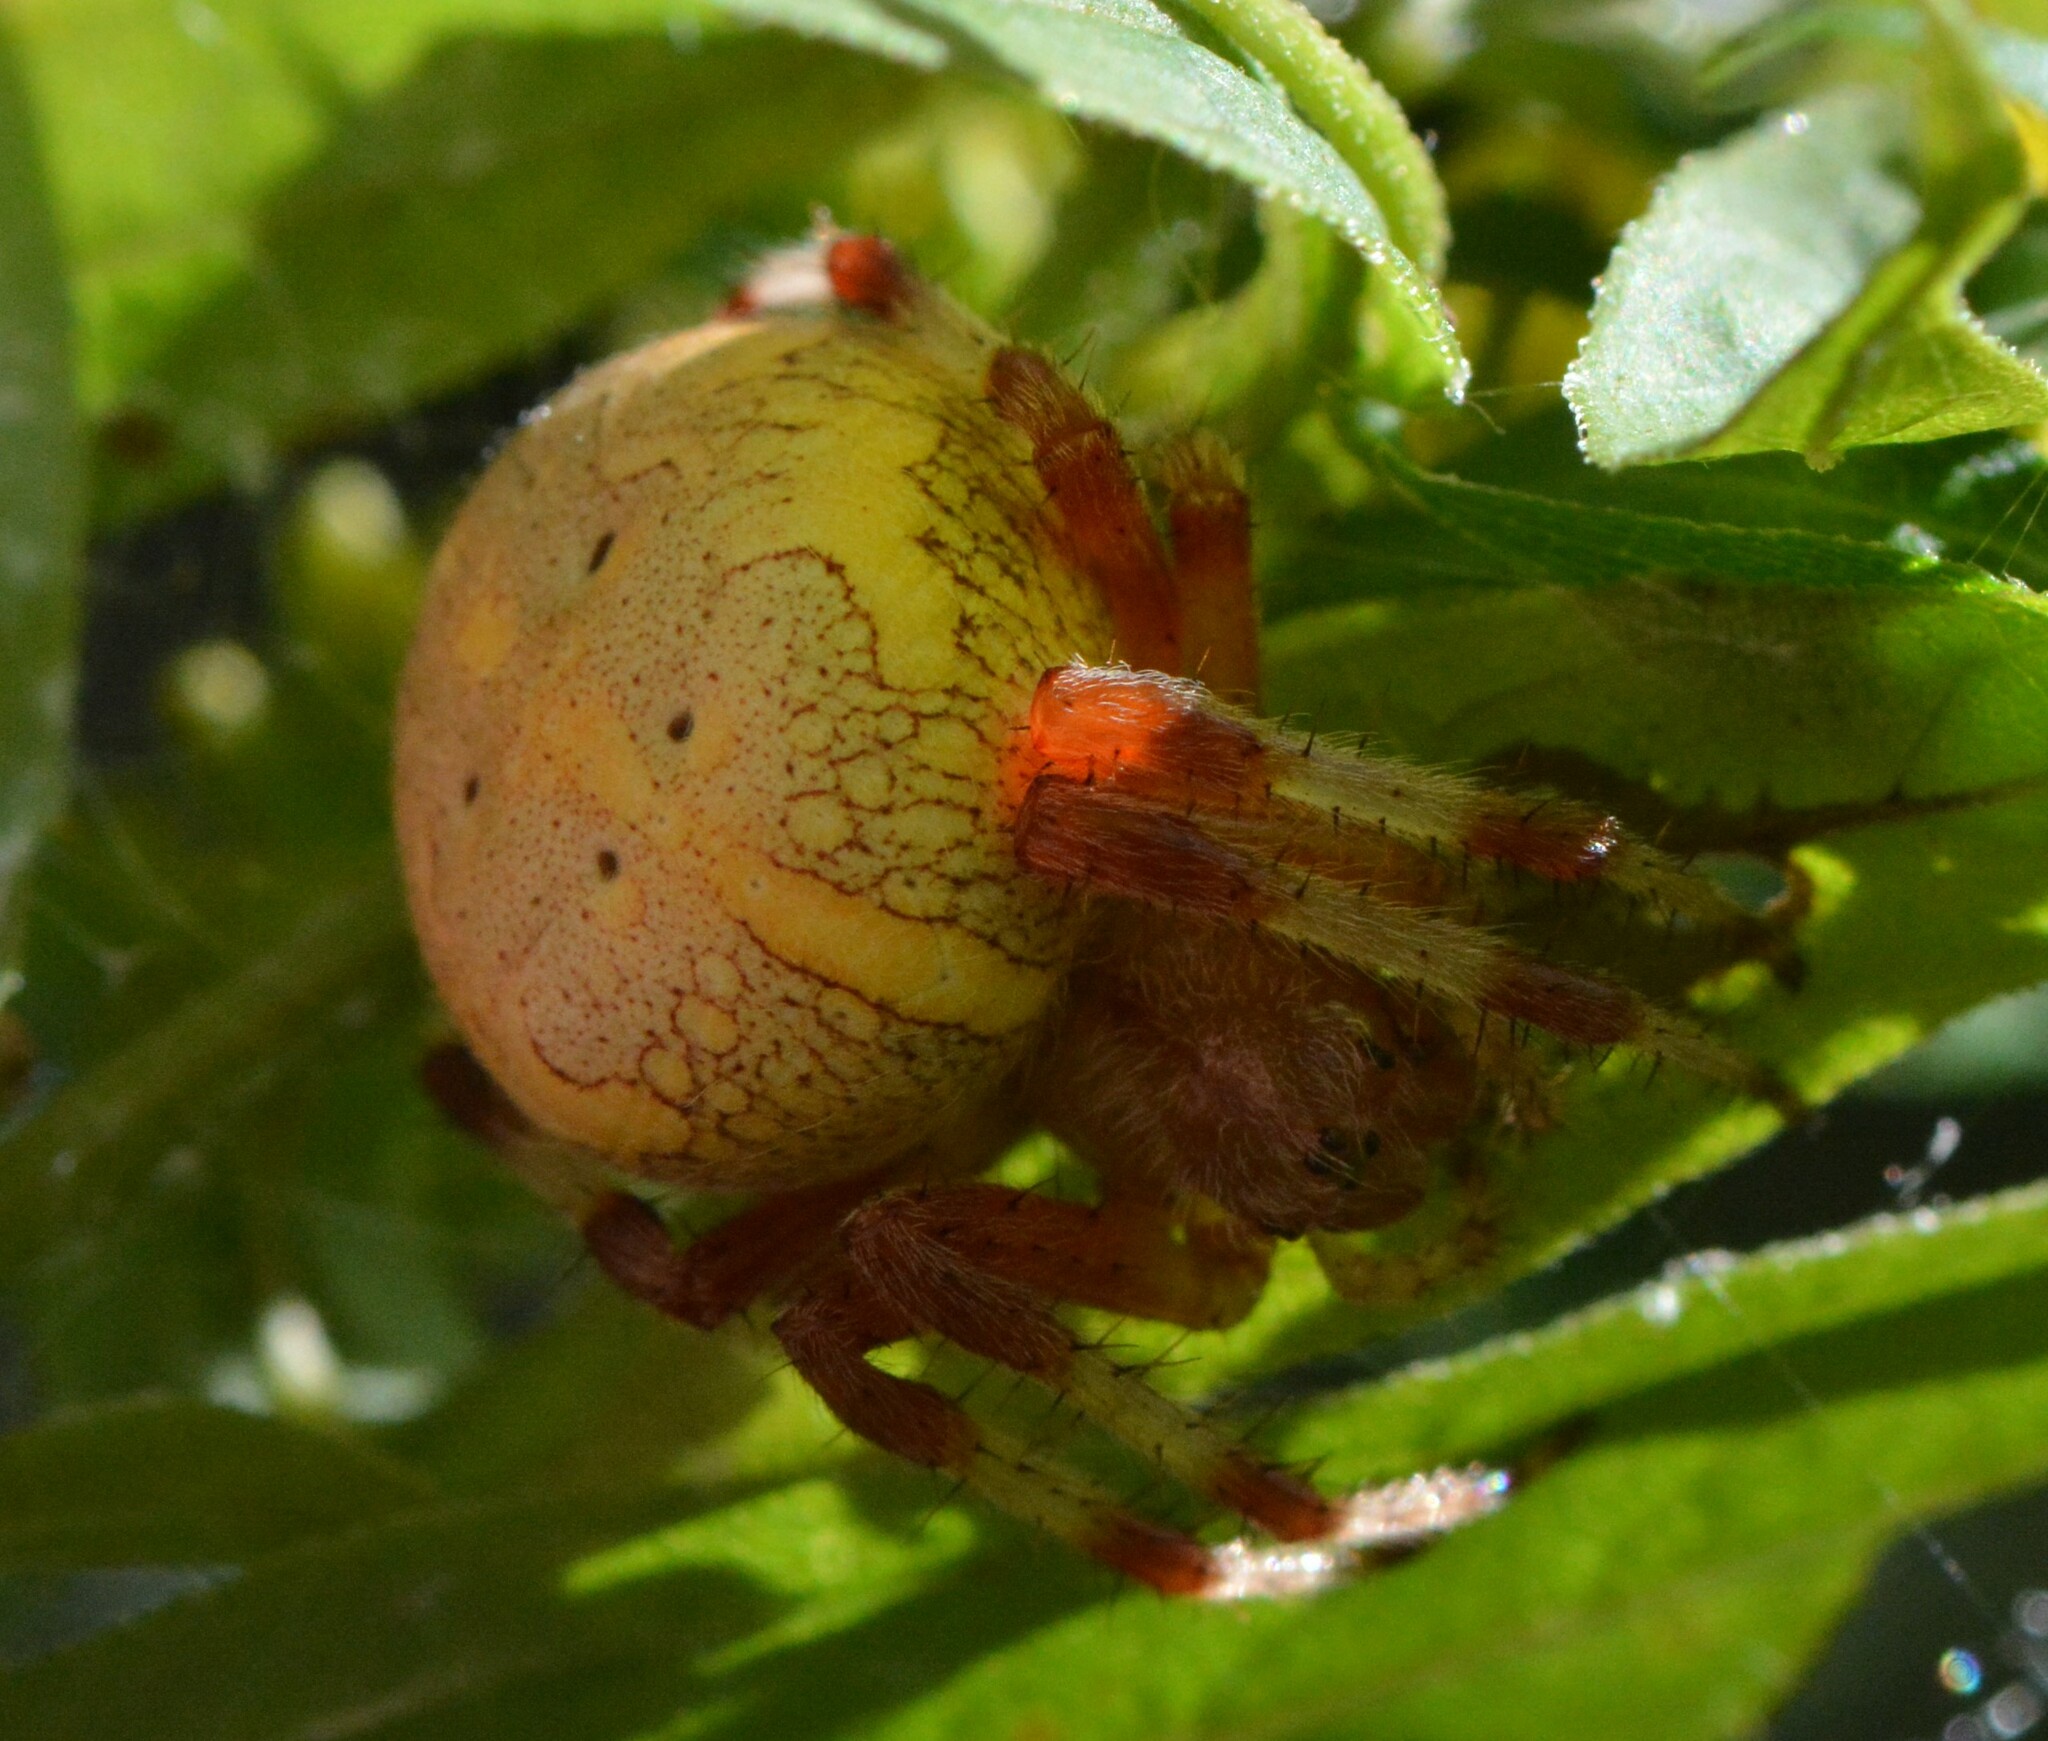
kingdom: Animalia
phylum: Arthropoda
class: Arachnida
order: Araneae
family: Araneidae
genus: Araneus
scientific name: Araneus marmoreus
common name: Marbled orbweaver
